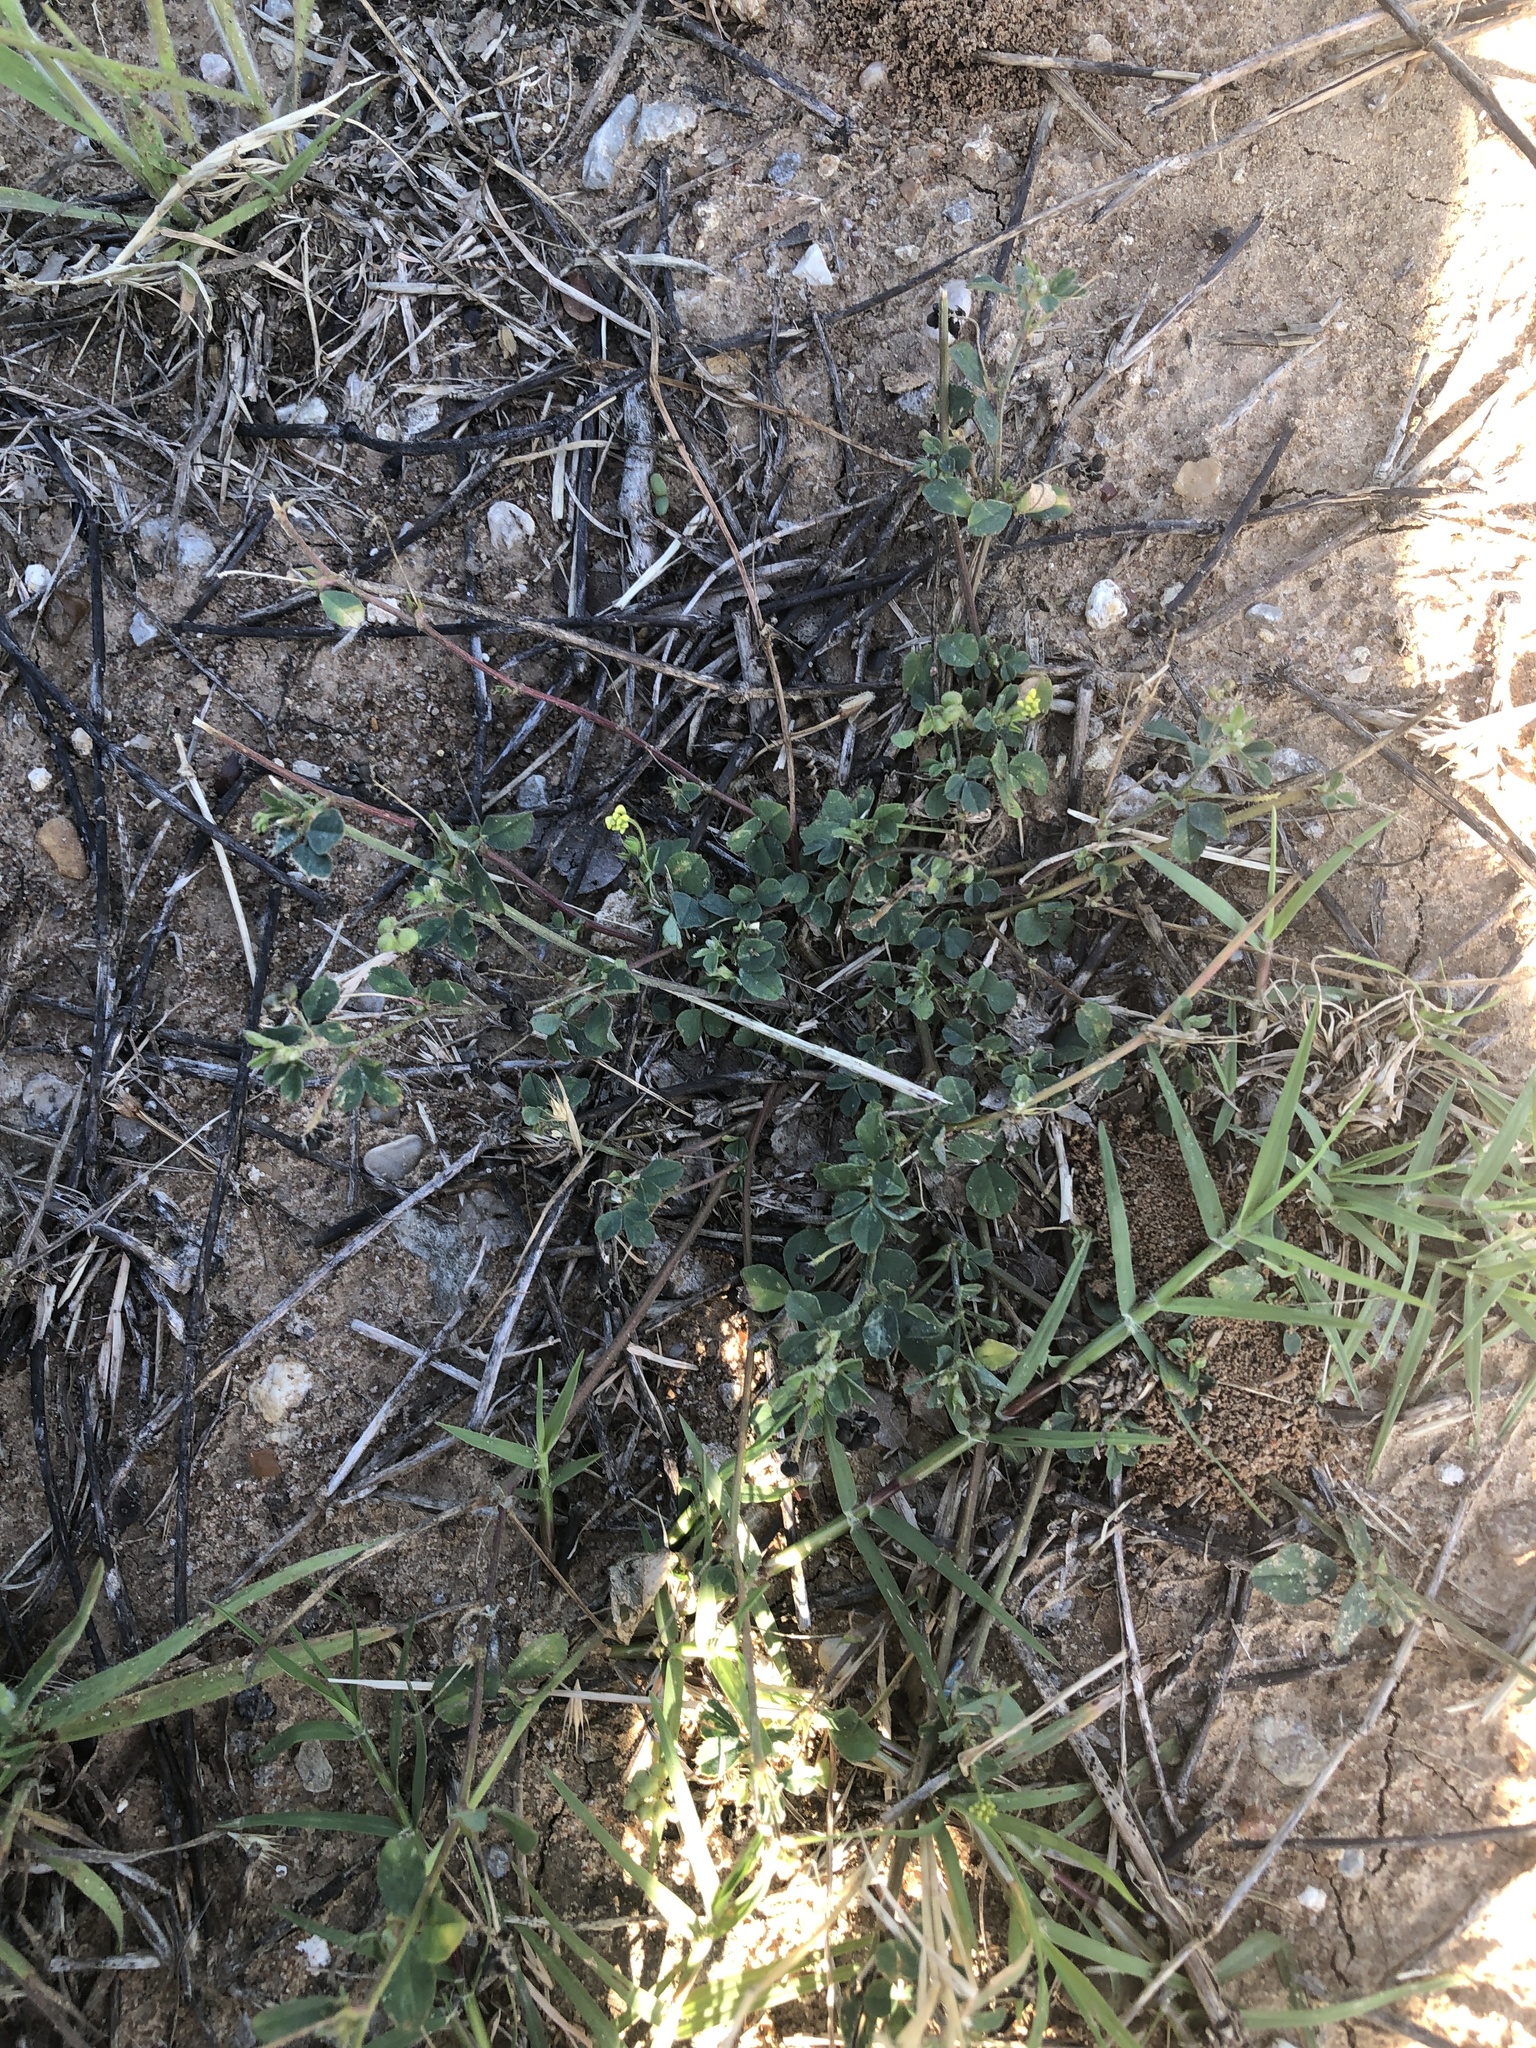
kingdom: Plantae
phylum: Tracheophyta
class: Magnoliopsida
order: Fabales
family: Fabaceae
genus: Medicago
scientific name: Medicago lupulina
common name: Black medick
